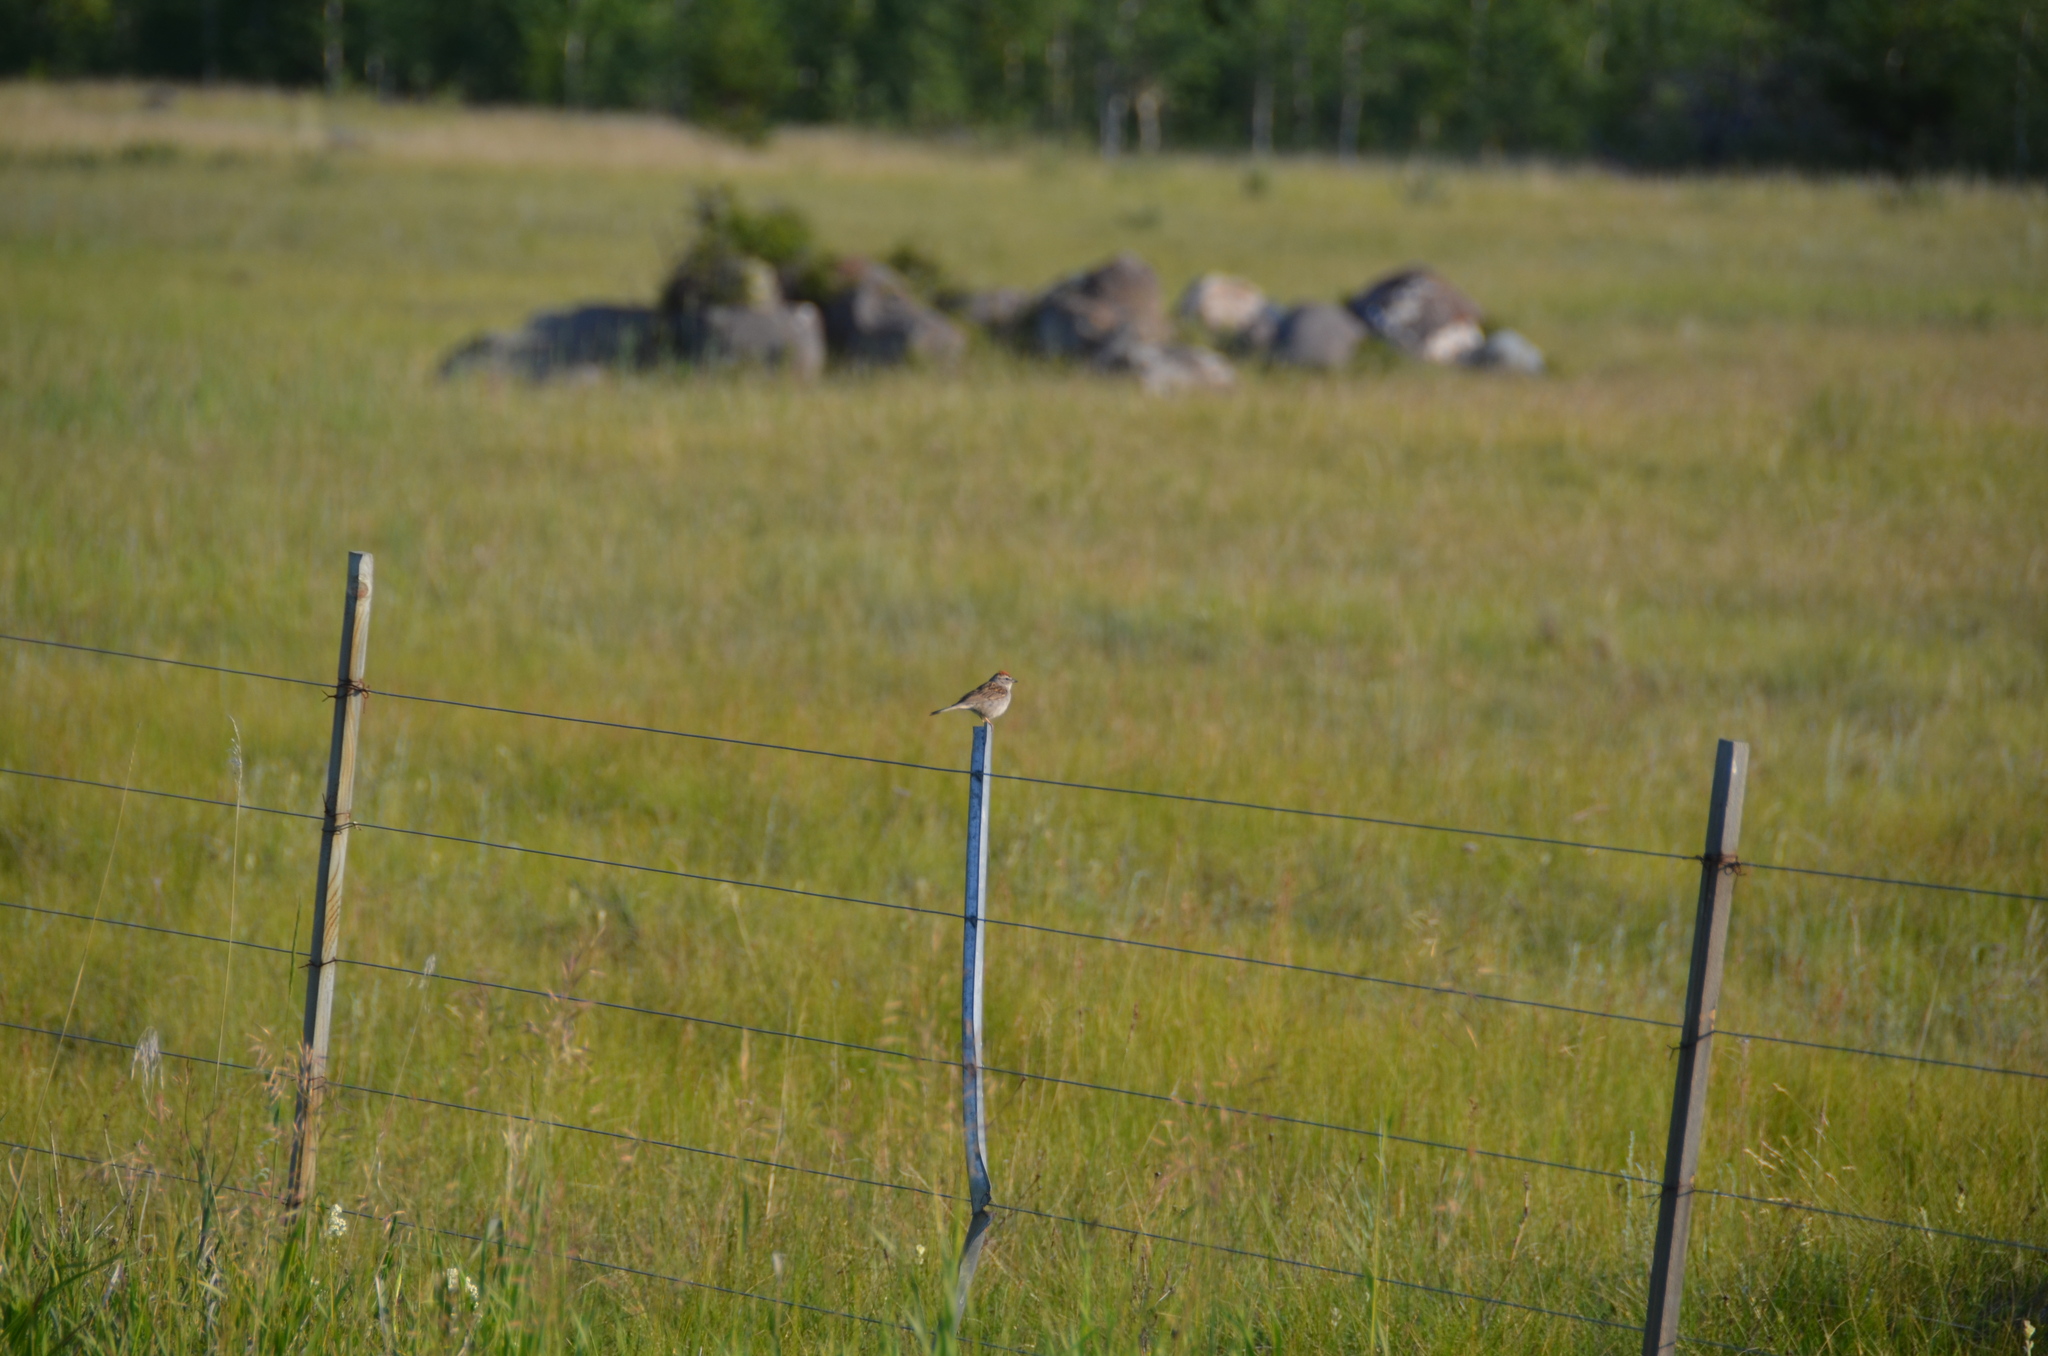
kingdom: Animalia
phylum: Chordata
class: Aves
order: Passeriformes
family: Passerellidae
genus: Spizella
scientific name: Spizella passerina
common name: Chipping sparrow
